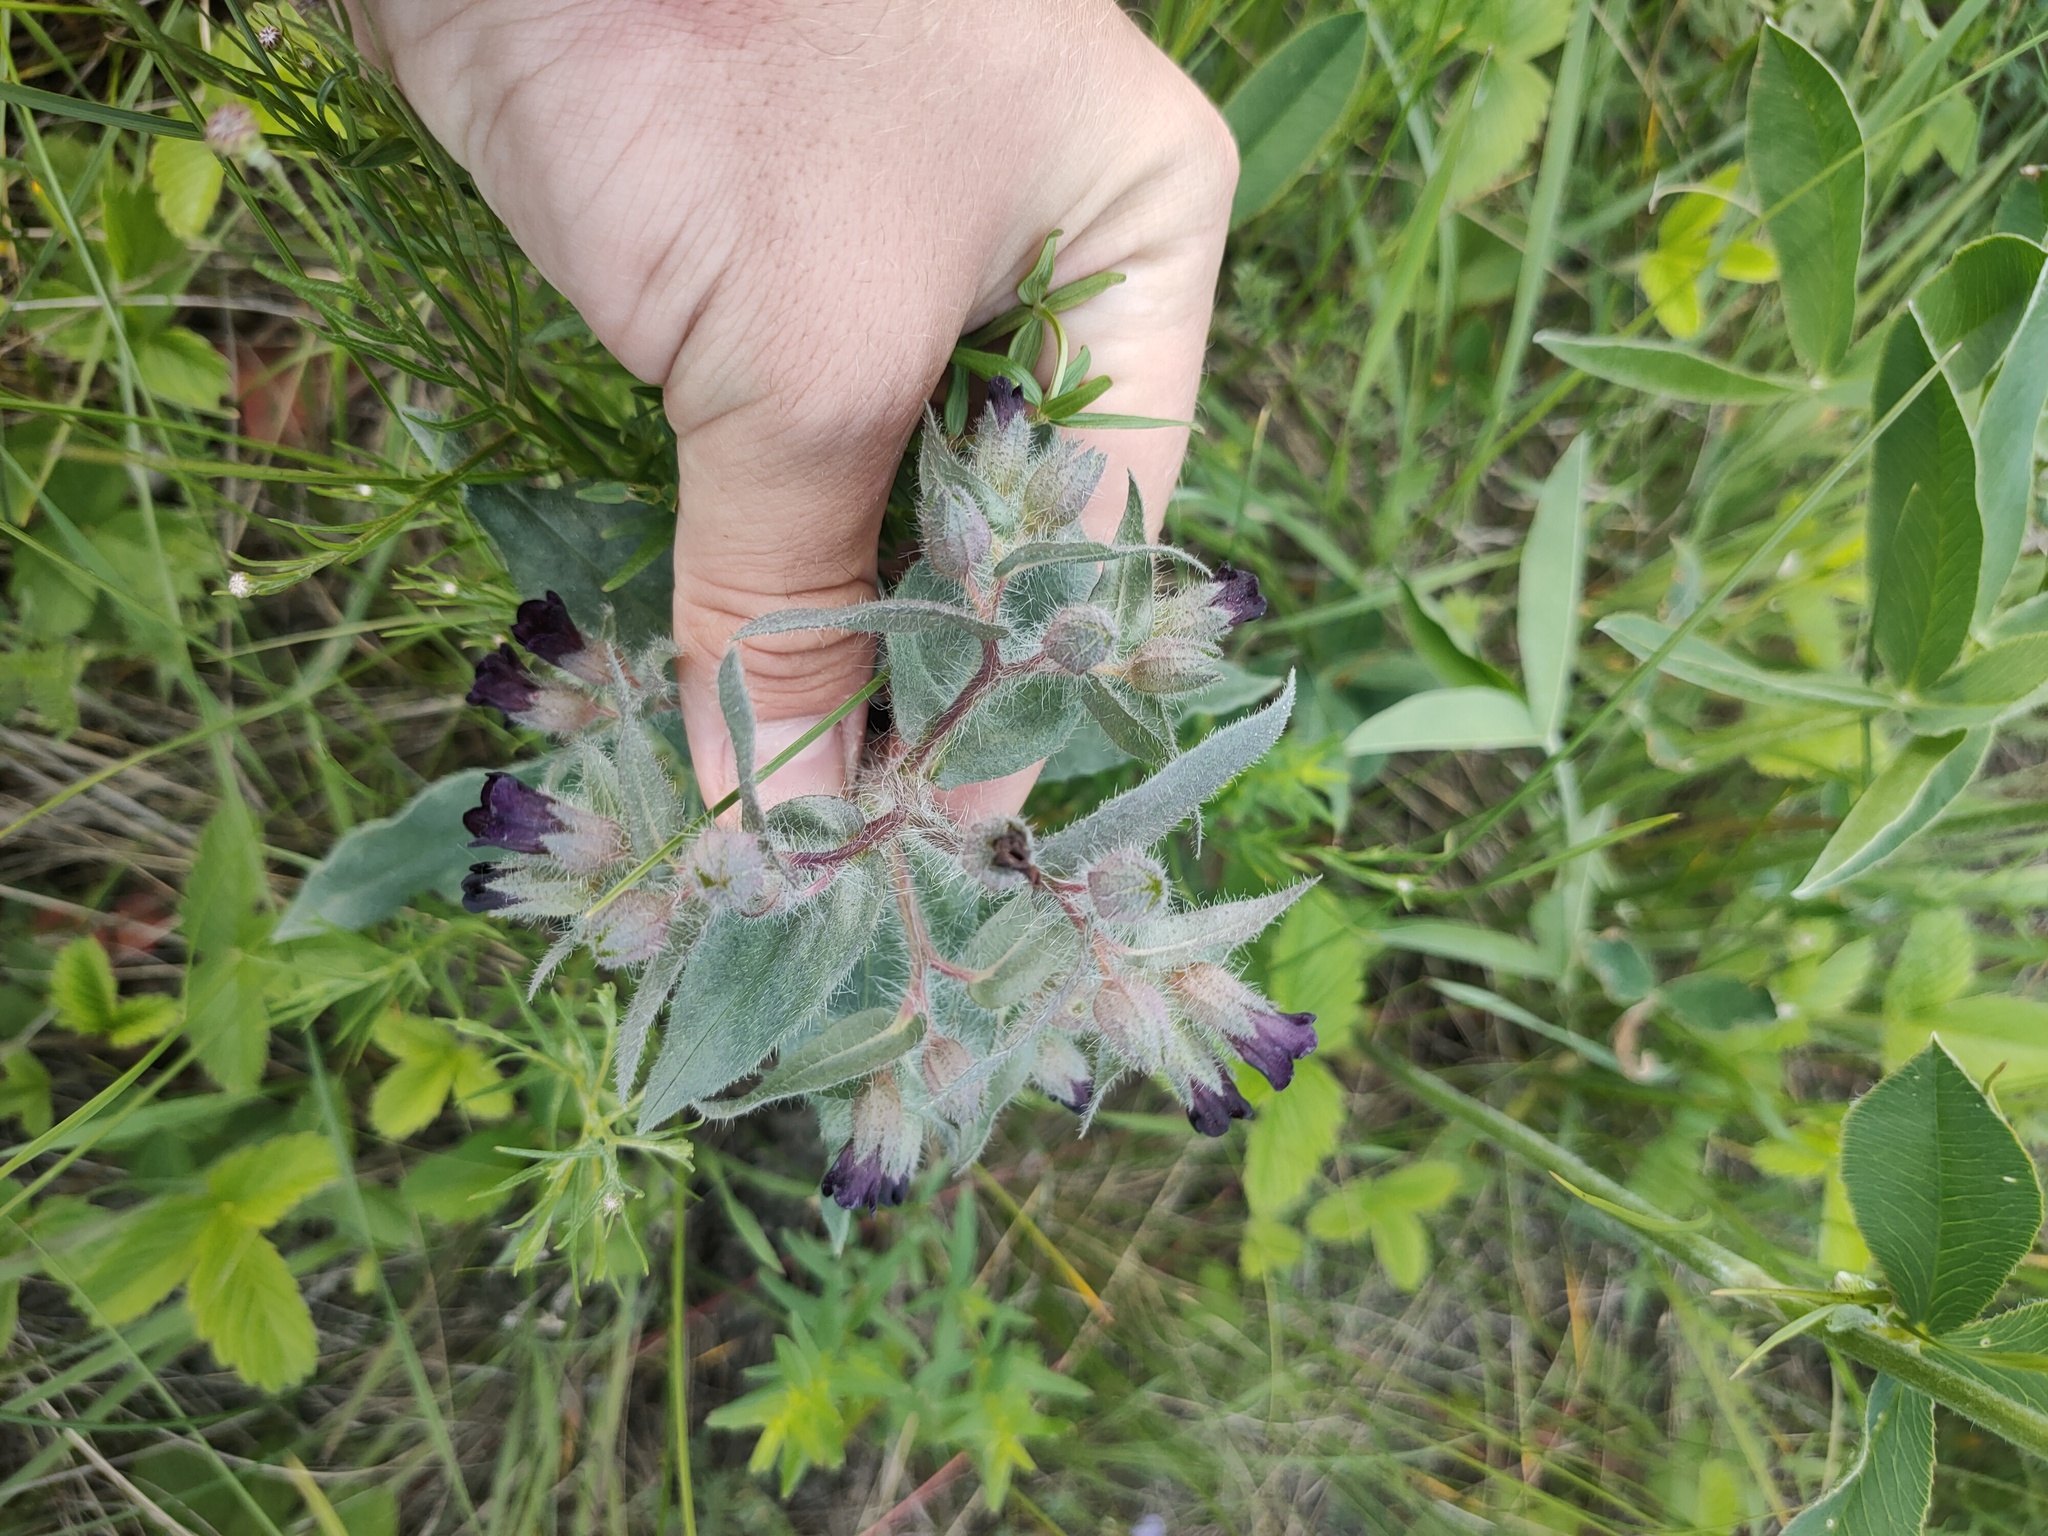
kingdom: Plantae
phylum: Tracheophyta
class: Magnoliopsida
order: Boraginales
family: Boraginaceae
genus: Nonea
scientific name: Nonea pulla
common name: Brown nonea
